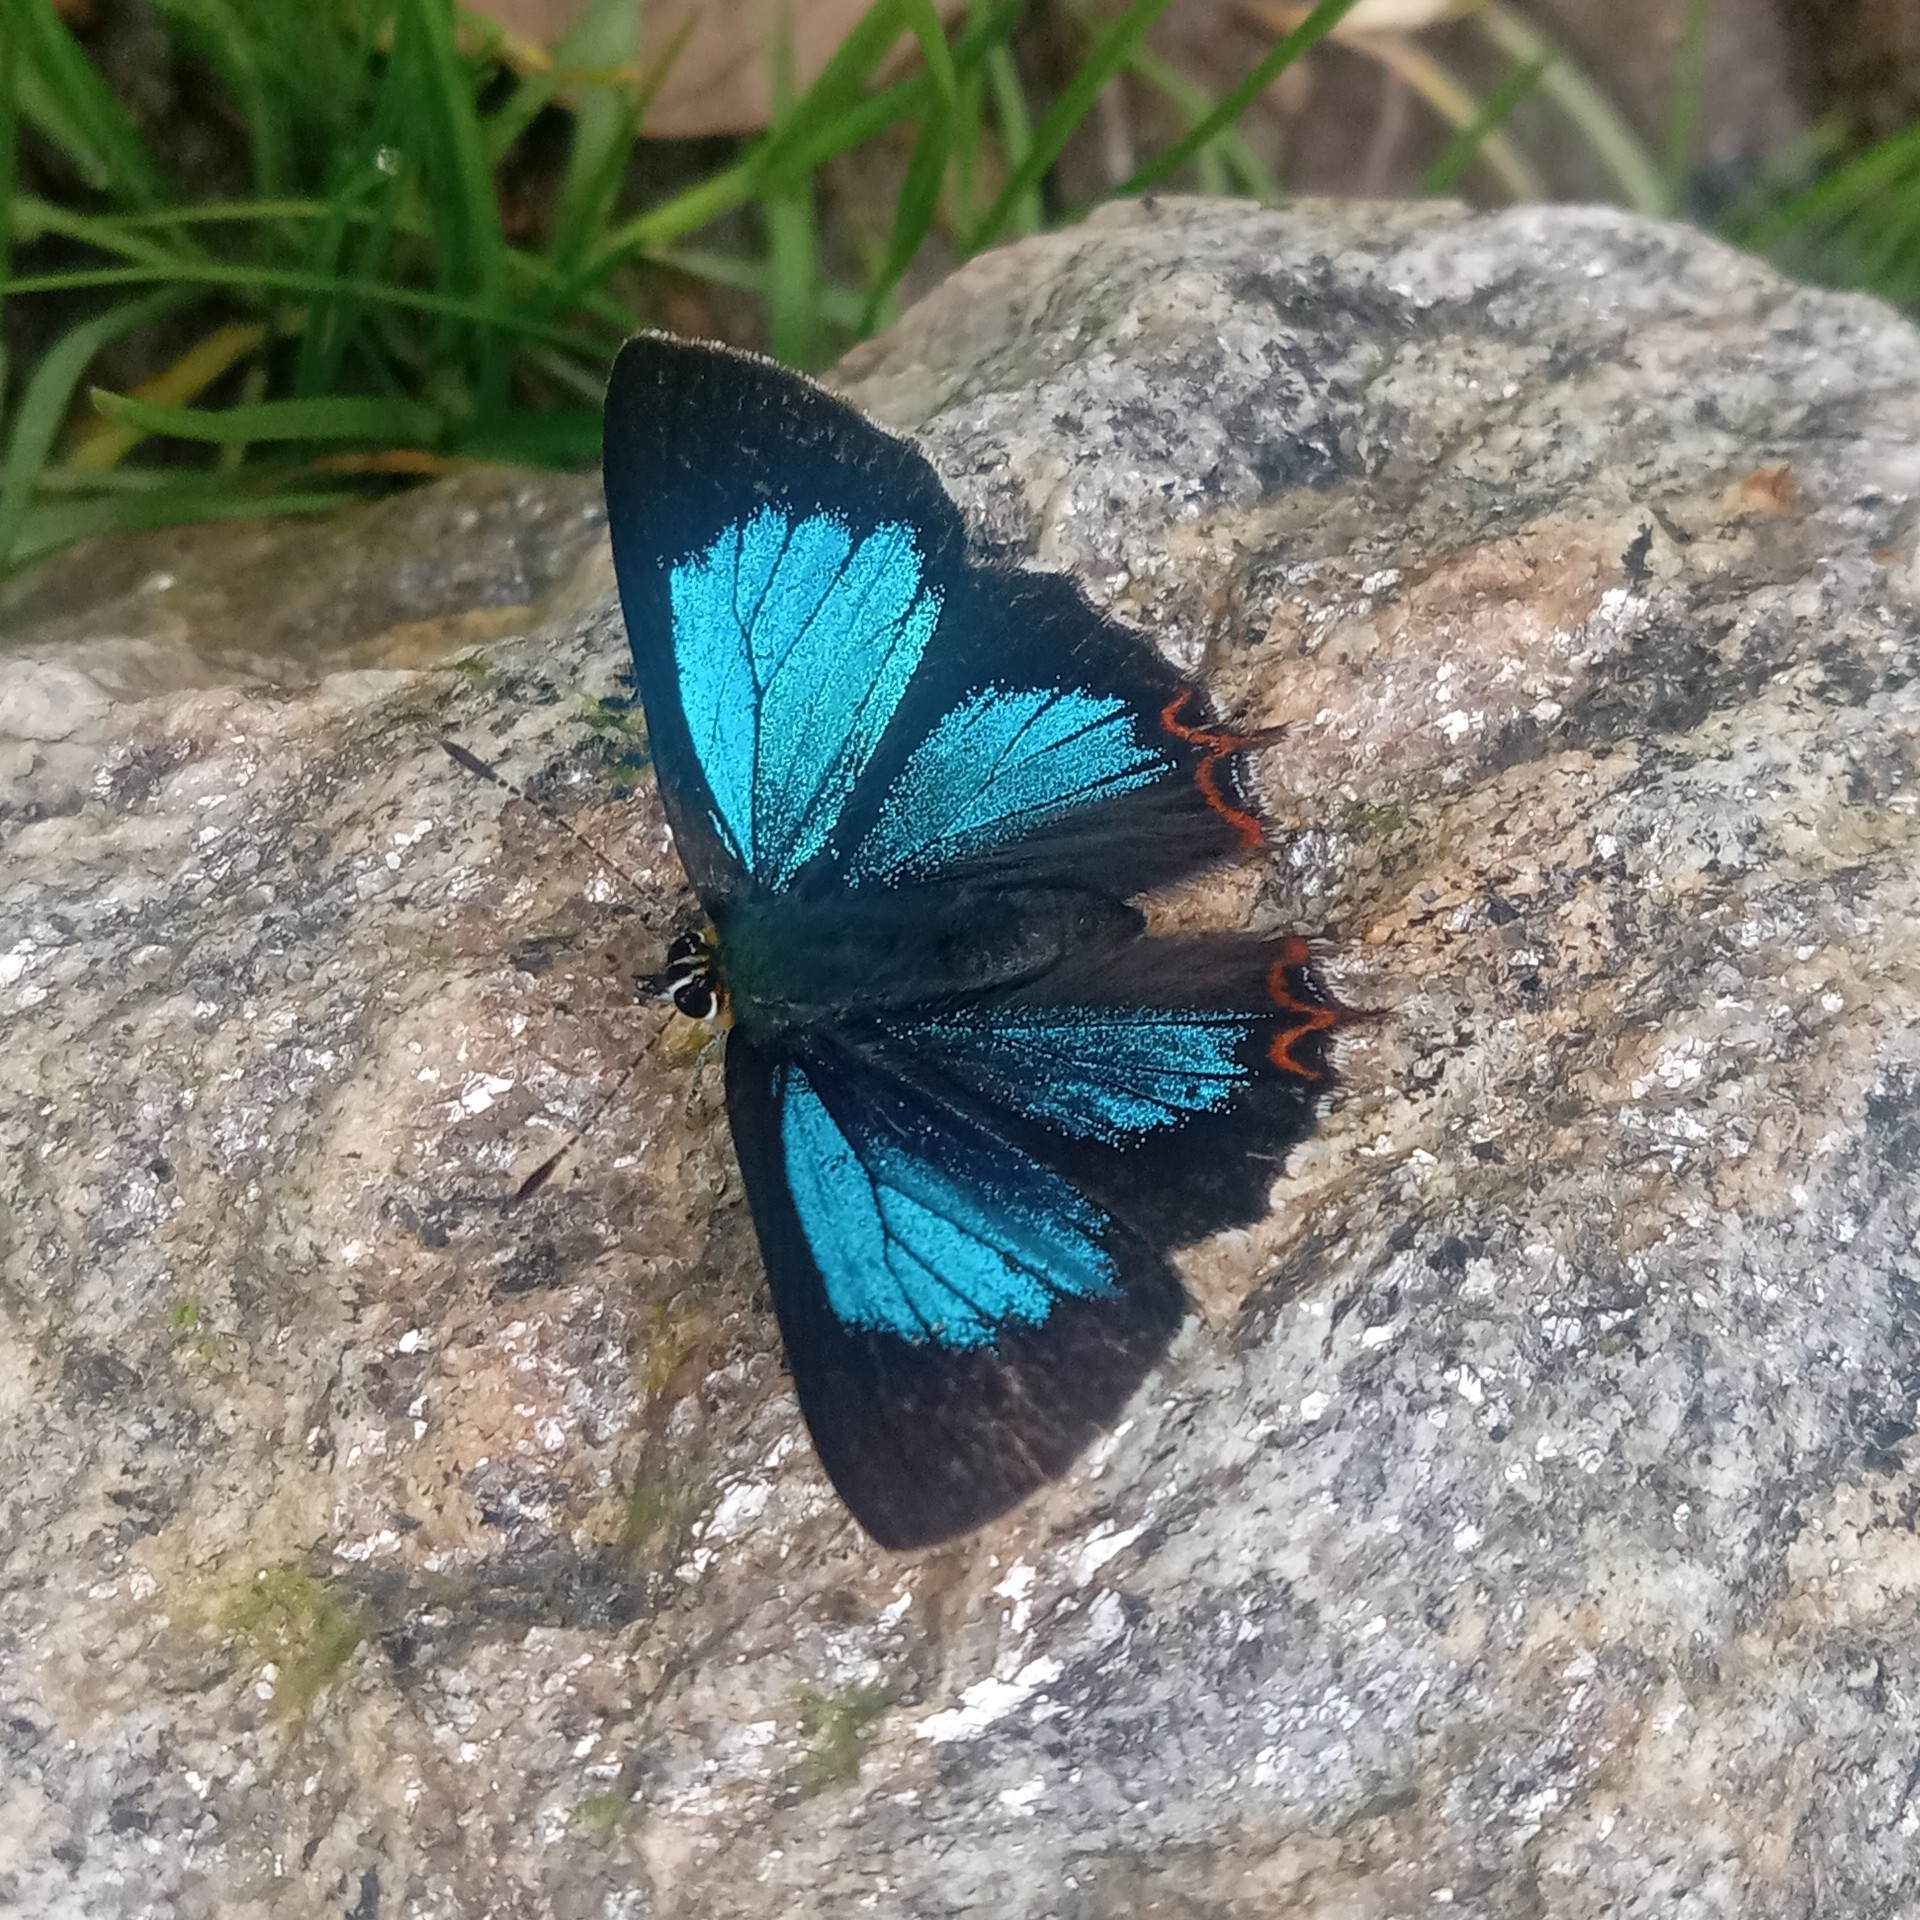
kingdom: Animalia
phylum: Arthropoda
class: Insecta
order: Lepidoptera
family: Lycaenidae
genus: Heliophorus
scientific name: Heliophorus
